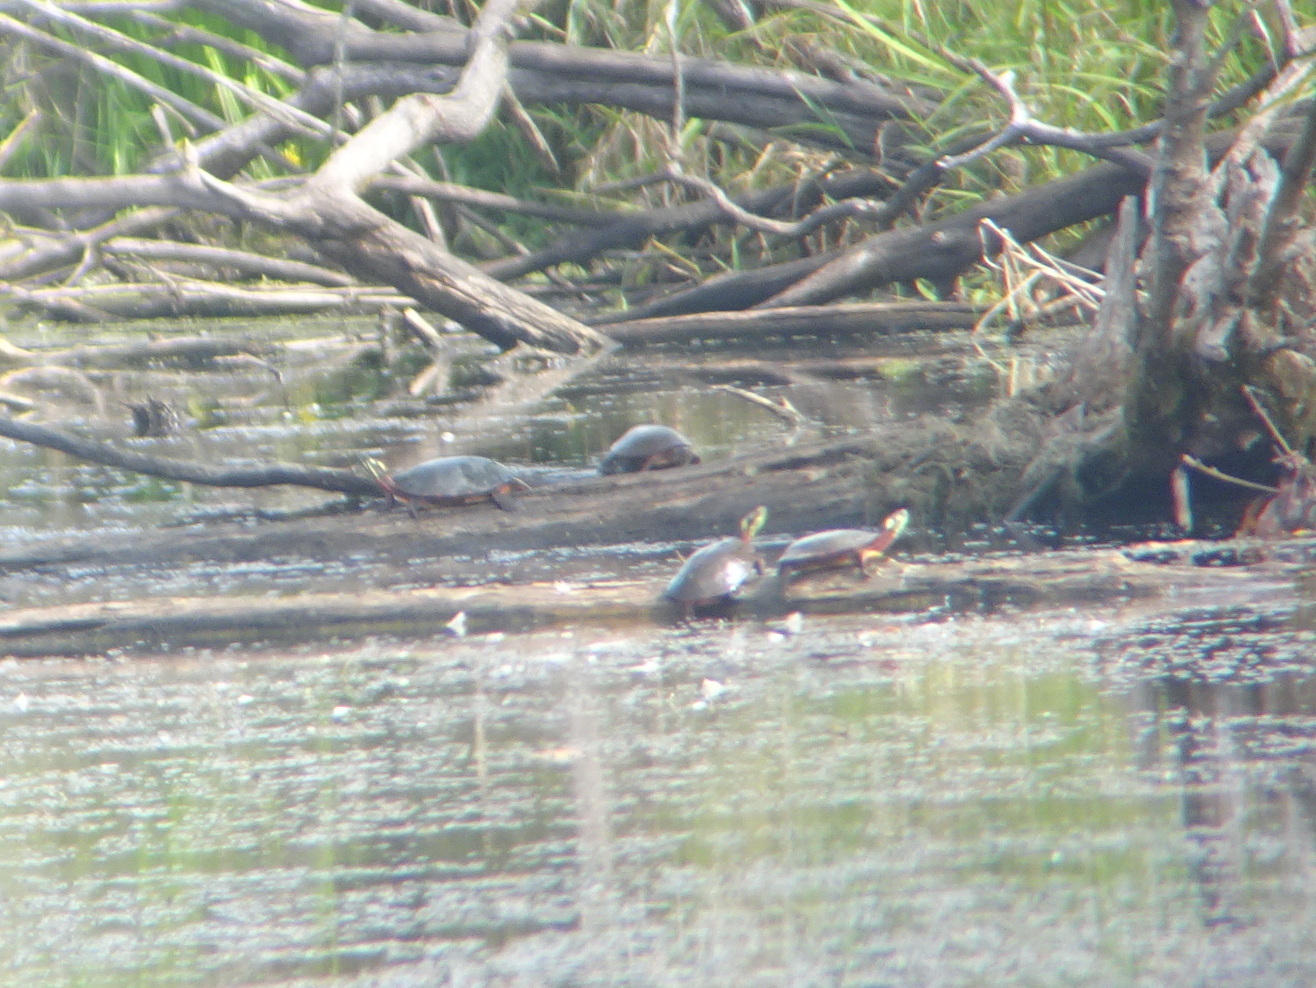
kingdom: Animalia
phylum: Chordata
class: Testudines
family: Emydidae
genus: Chrysemys
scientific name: Chrysemys picta
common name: Painted turtle
